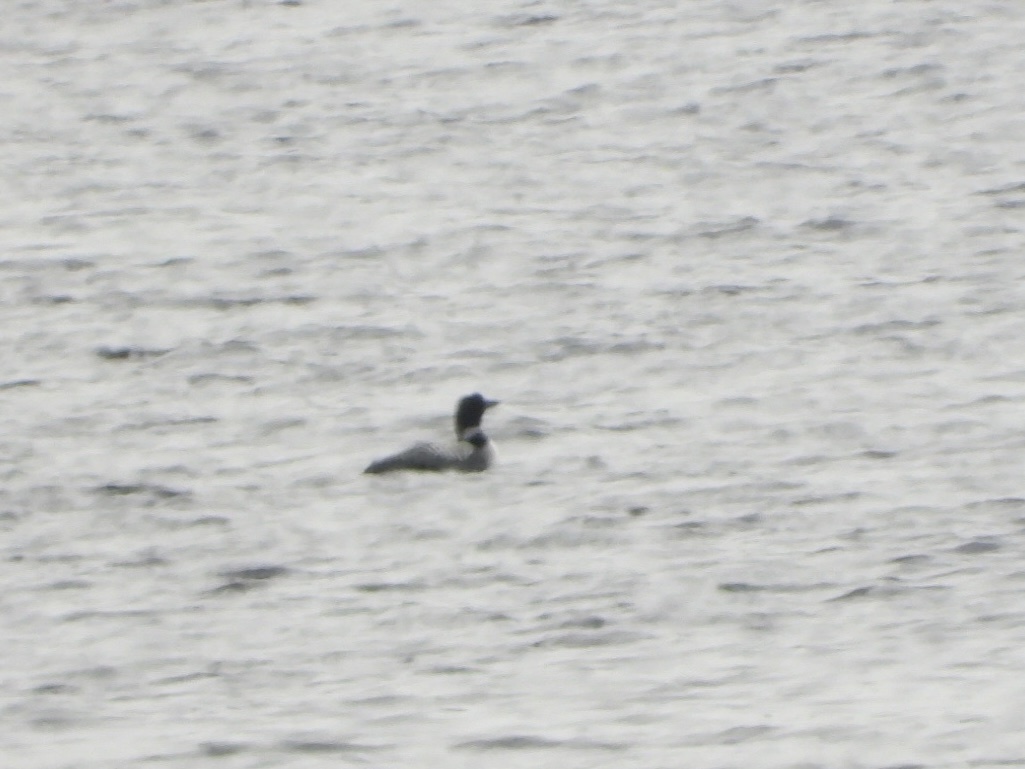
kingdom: Animalia
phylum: Chordata
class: Aves
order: Gaviiformes
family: Gaviidae
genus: Gavia
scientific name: Gavia immer
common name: Common loon
